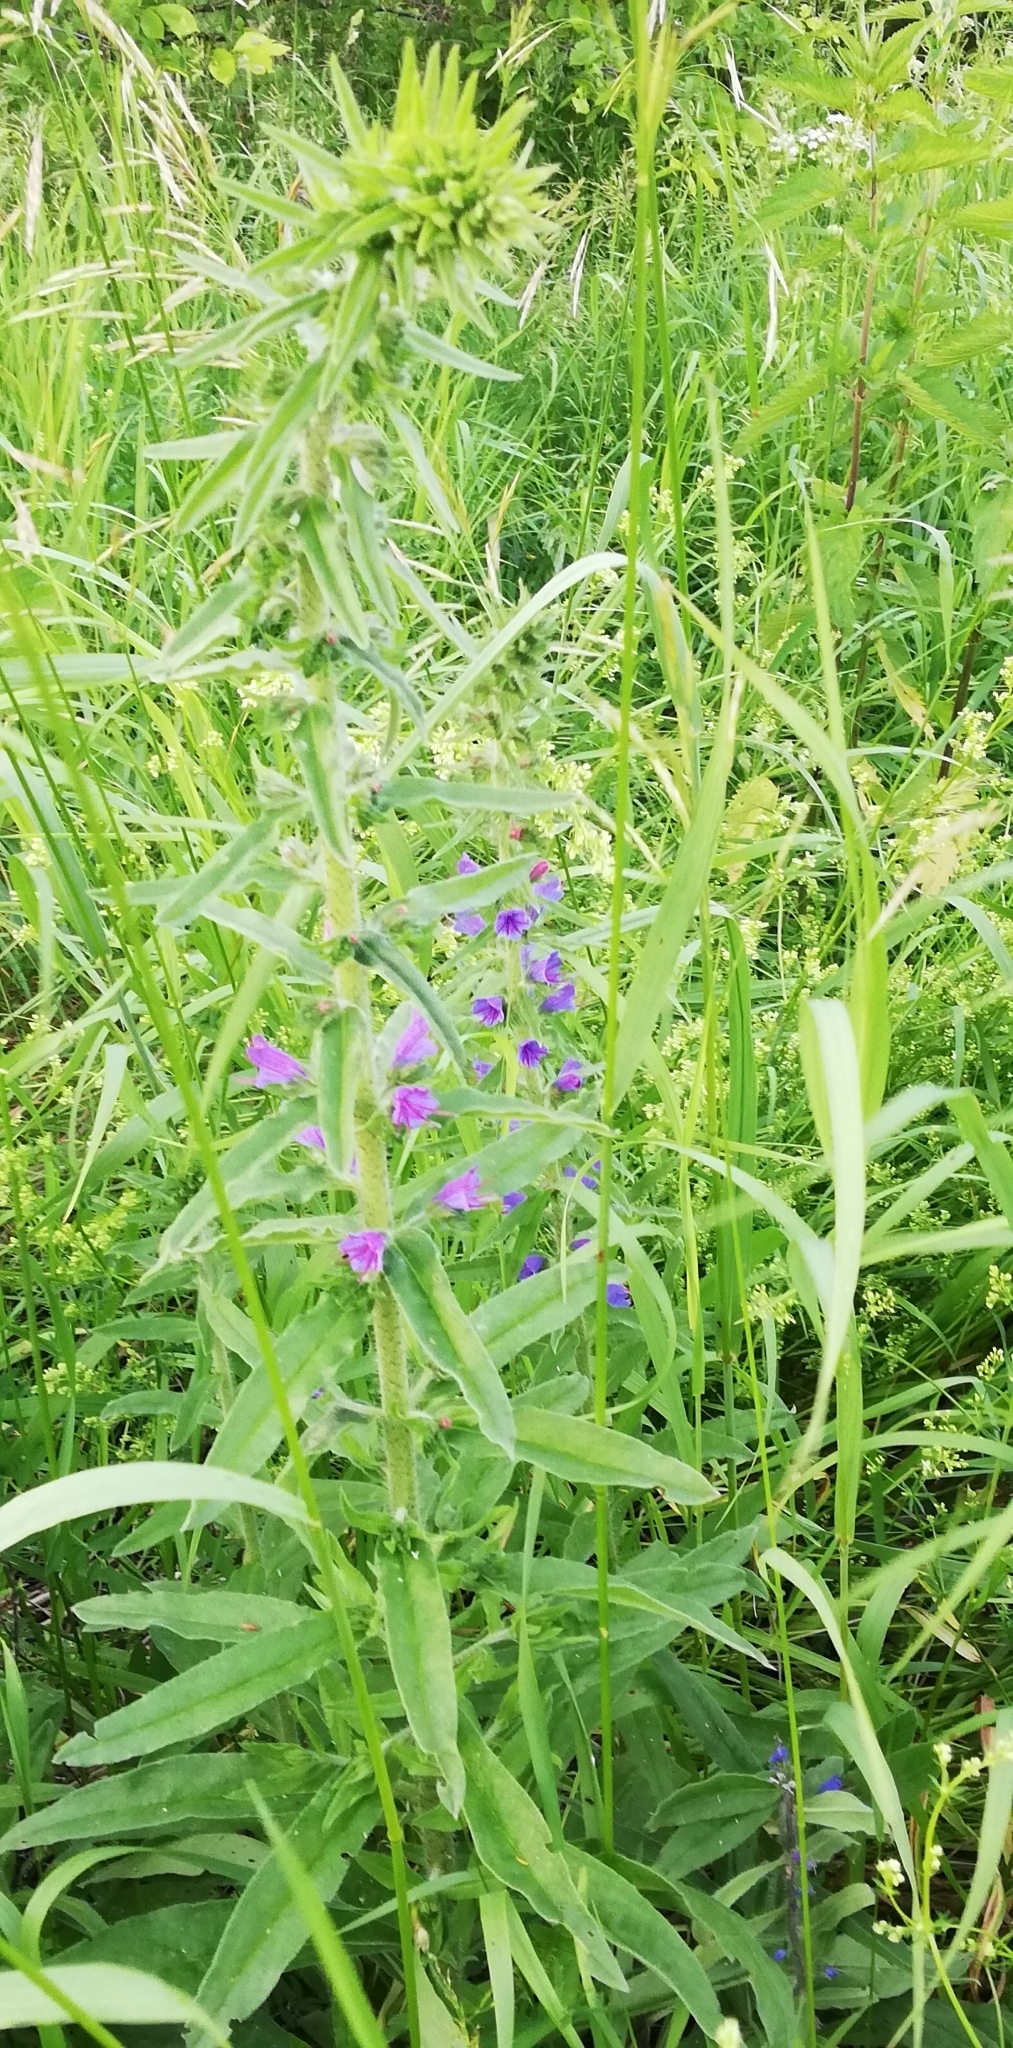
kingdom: Plantae
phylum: Tracheophyta
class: Magnoliopsida
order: Boraginales
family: Boraginaceae
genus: Echium
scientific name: Echium vulgare
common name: Common viper's bugloss
